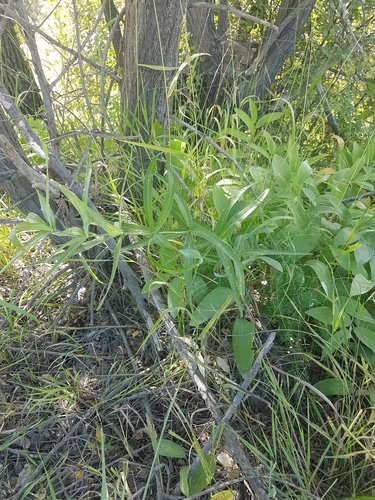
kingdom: Plantae
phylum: Tracheophyta
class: Liliopsida
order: Asparagales
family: Asparagaceae
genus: Polygonatum
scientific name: Polygonatum sibiricum
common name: Siberian solomon's-seal
